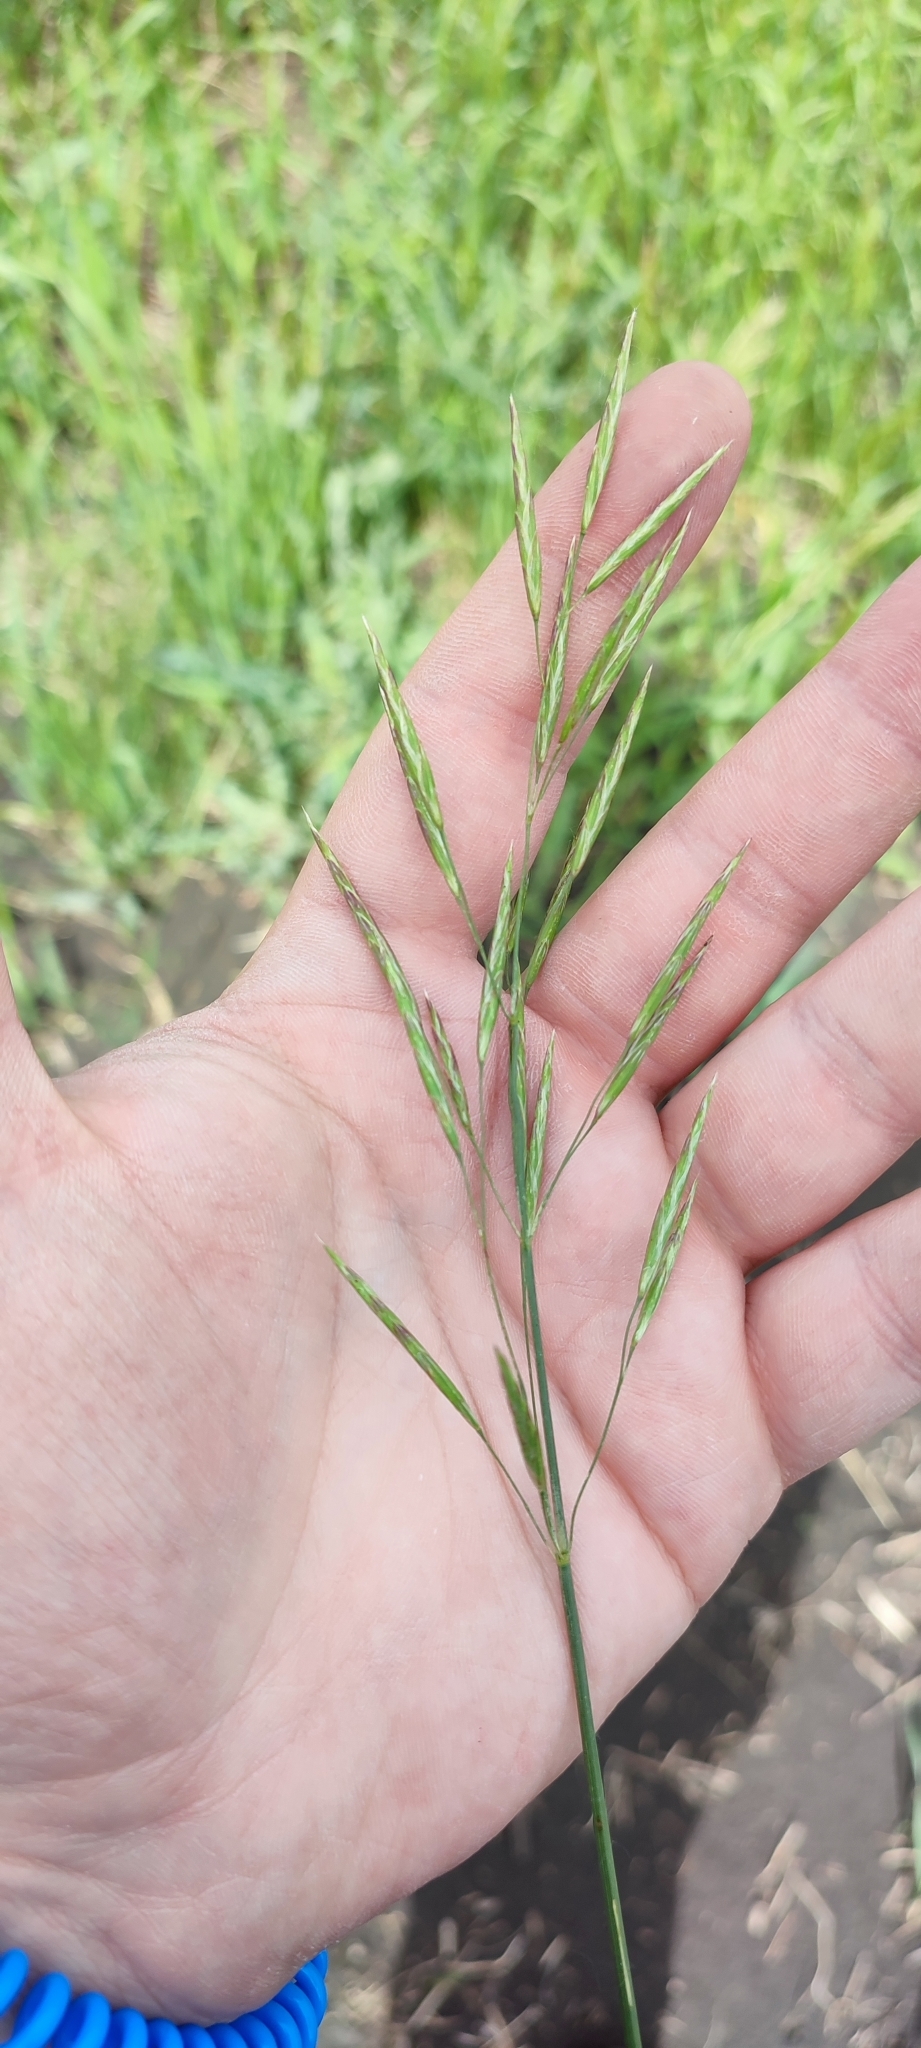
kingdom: Plantae
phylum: Tracheophyta
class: Liliopsida
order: Poales
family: Poaceae
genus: Bromus
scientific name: Bromus inermis
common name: Smooth brome
